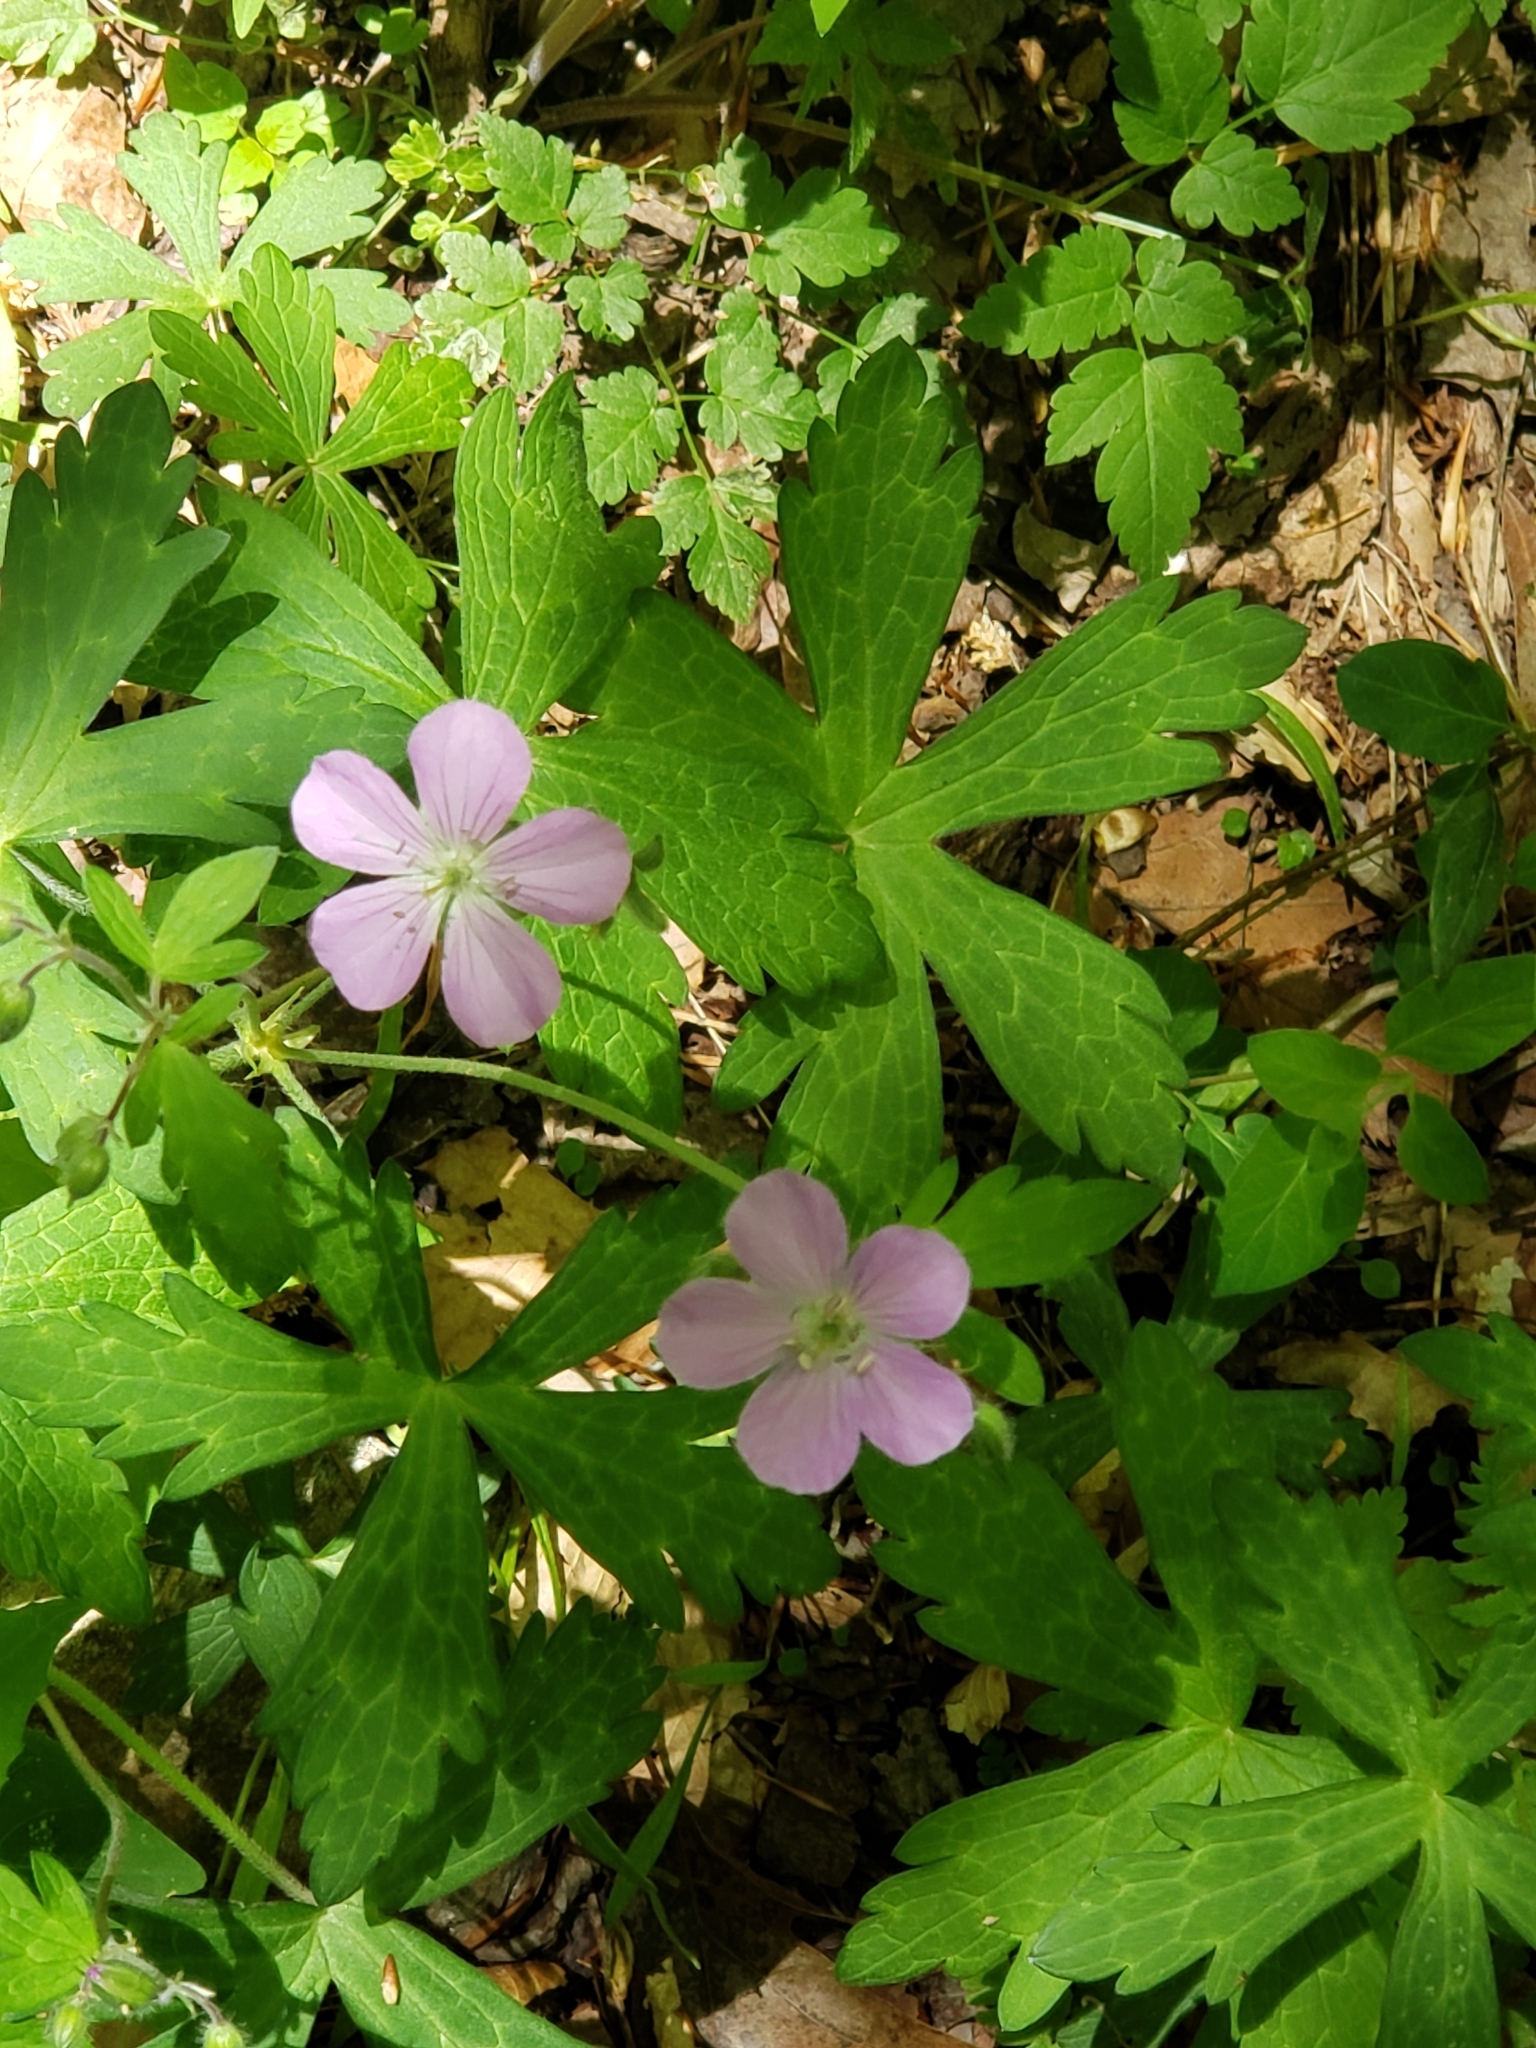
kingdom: Plantae
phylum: Tracheophyta
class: Magnoliopsida
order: Geraniales
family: Geraniaceae
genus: Geranium
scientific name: Geranium maculatum
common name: Spotted geranium
